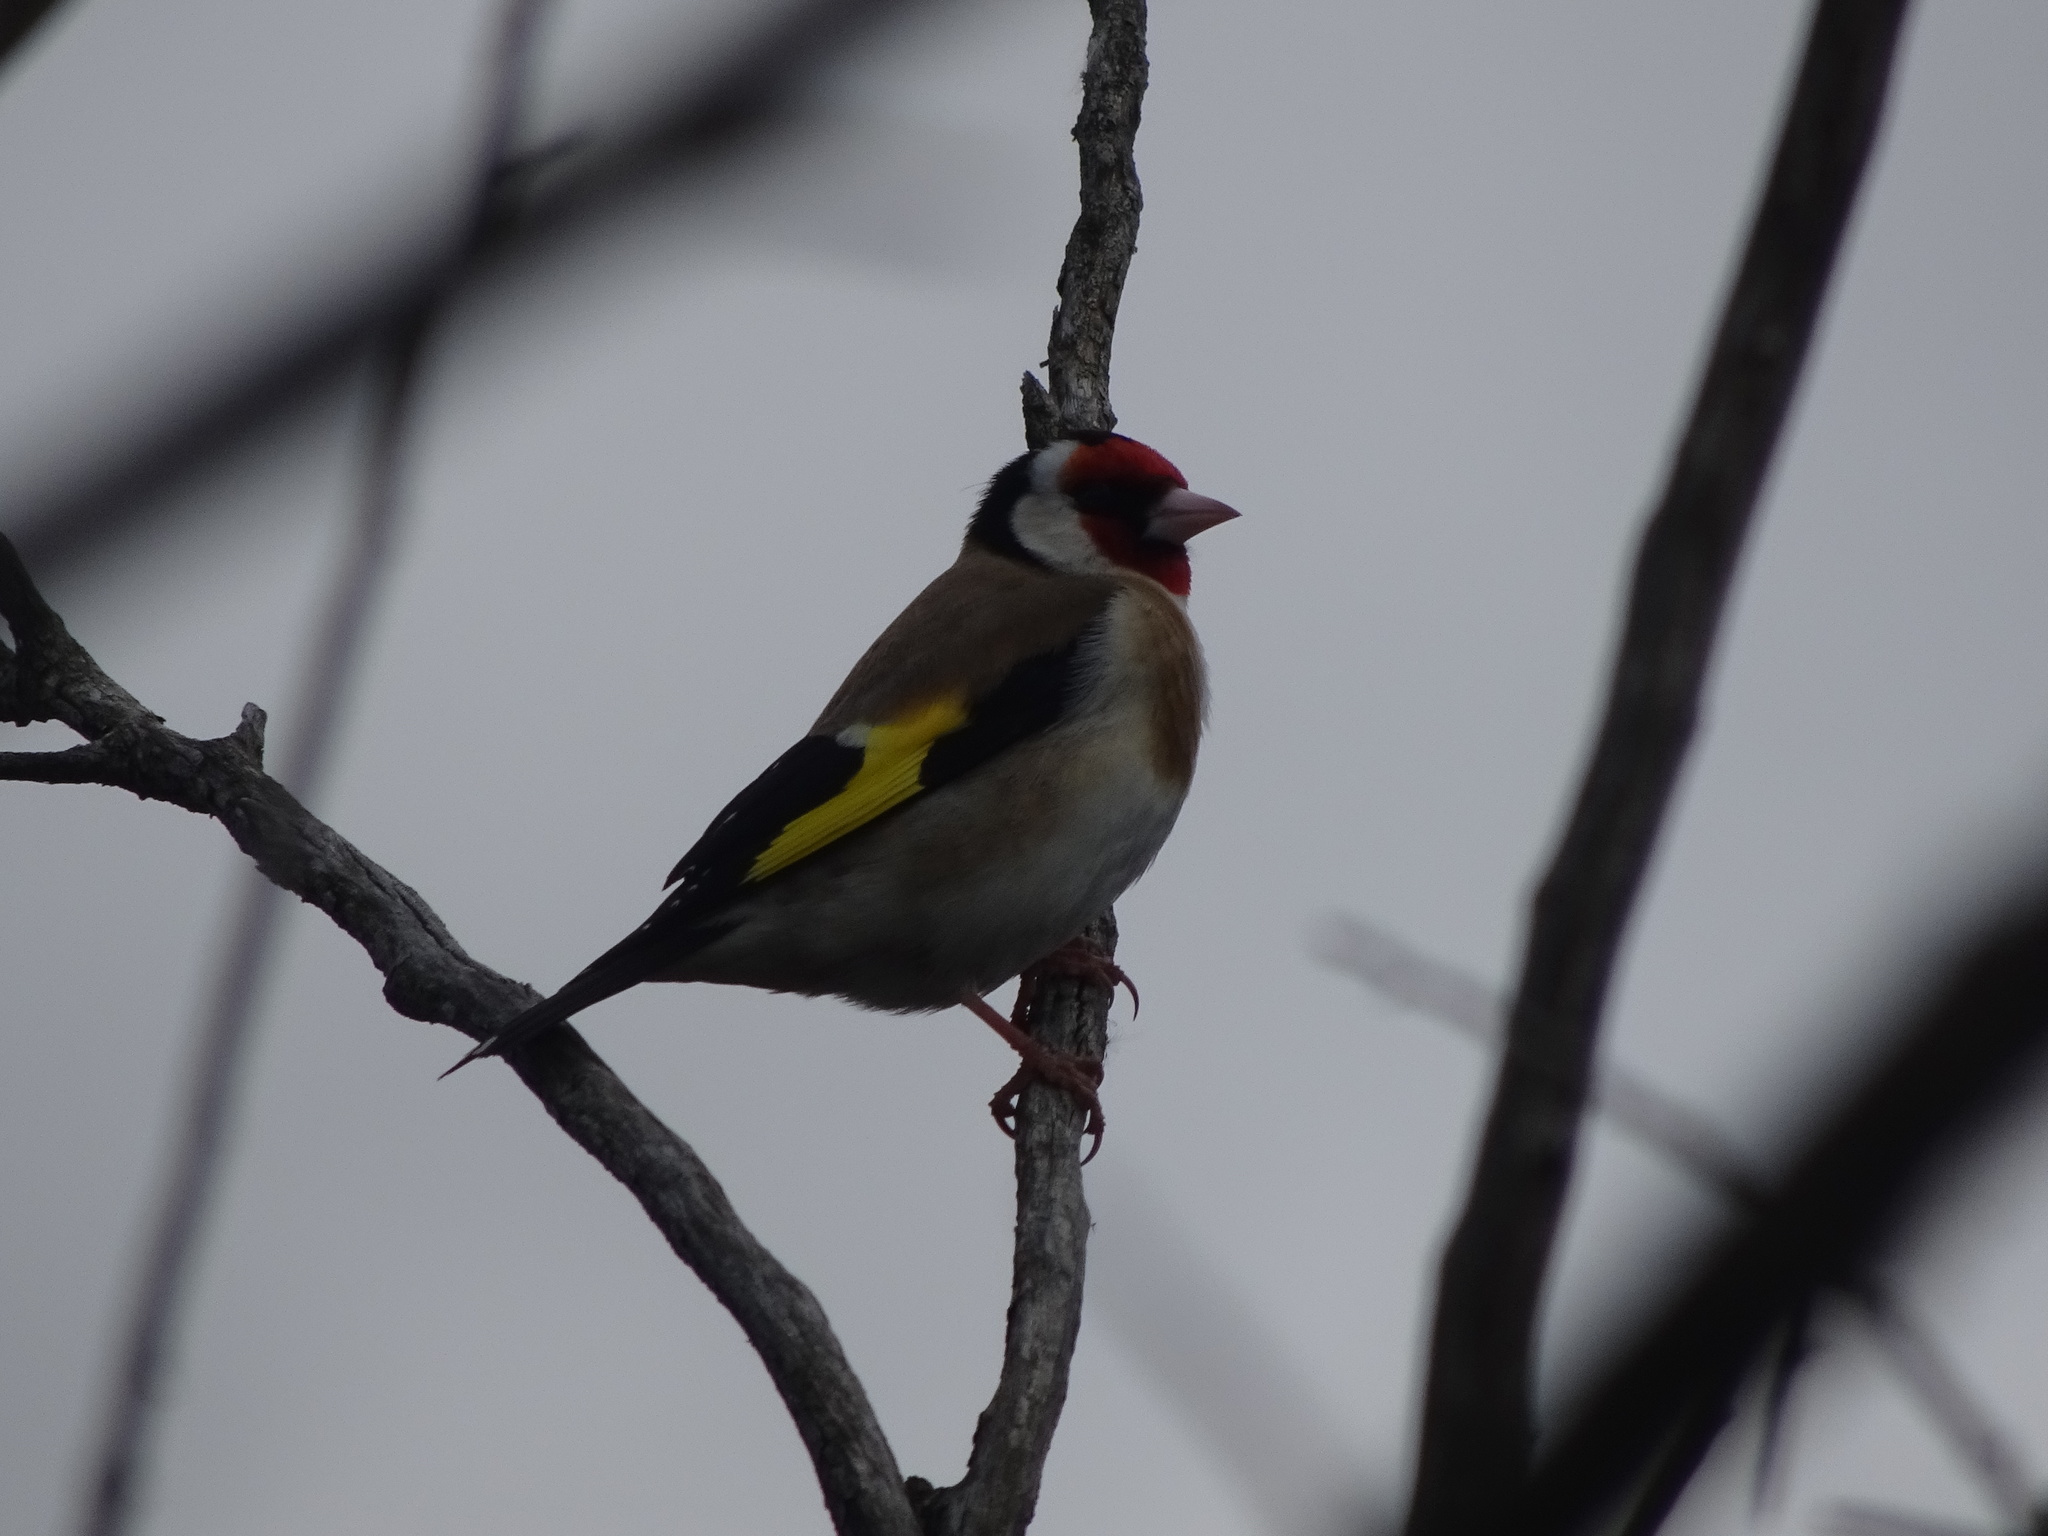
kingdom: Animalia
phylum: Chordata
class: Aves
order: Passeriformes
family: Fringillidae
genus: Carduelis
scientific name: Carduelis carduelis
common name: European goldfinch
